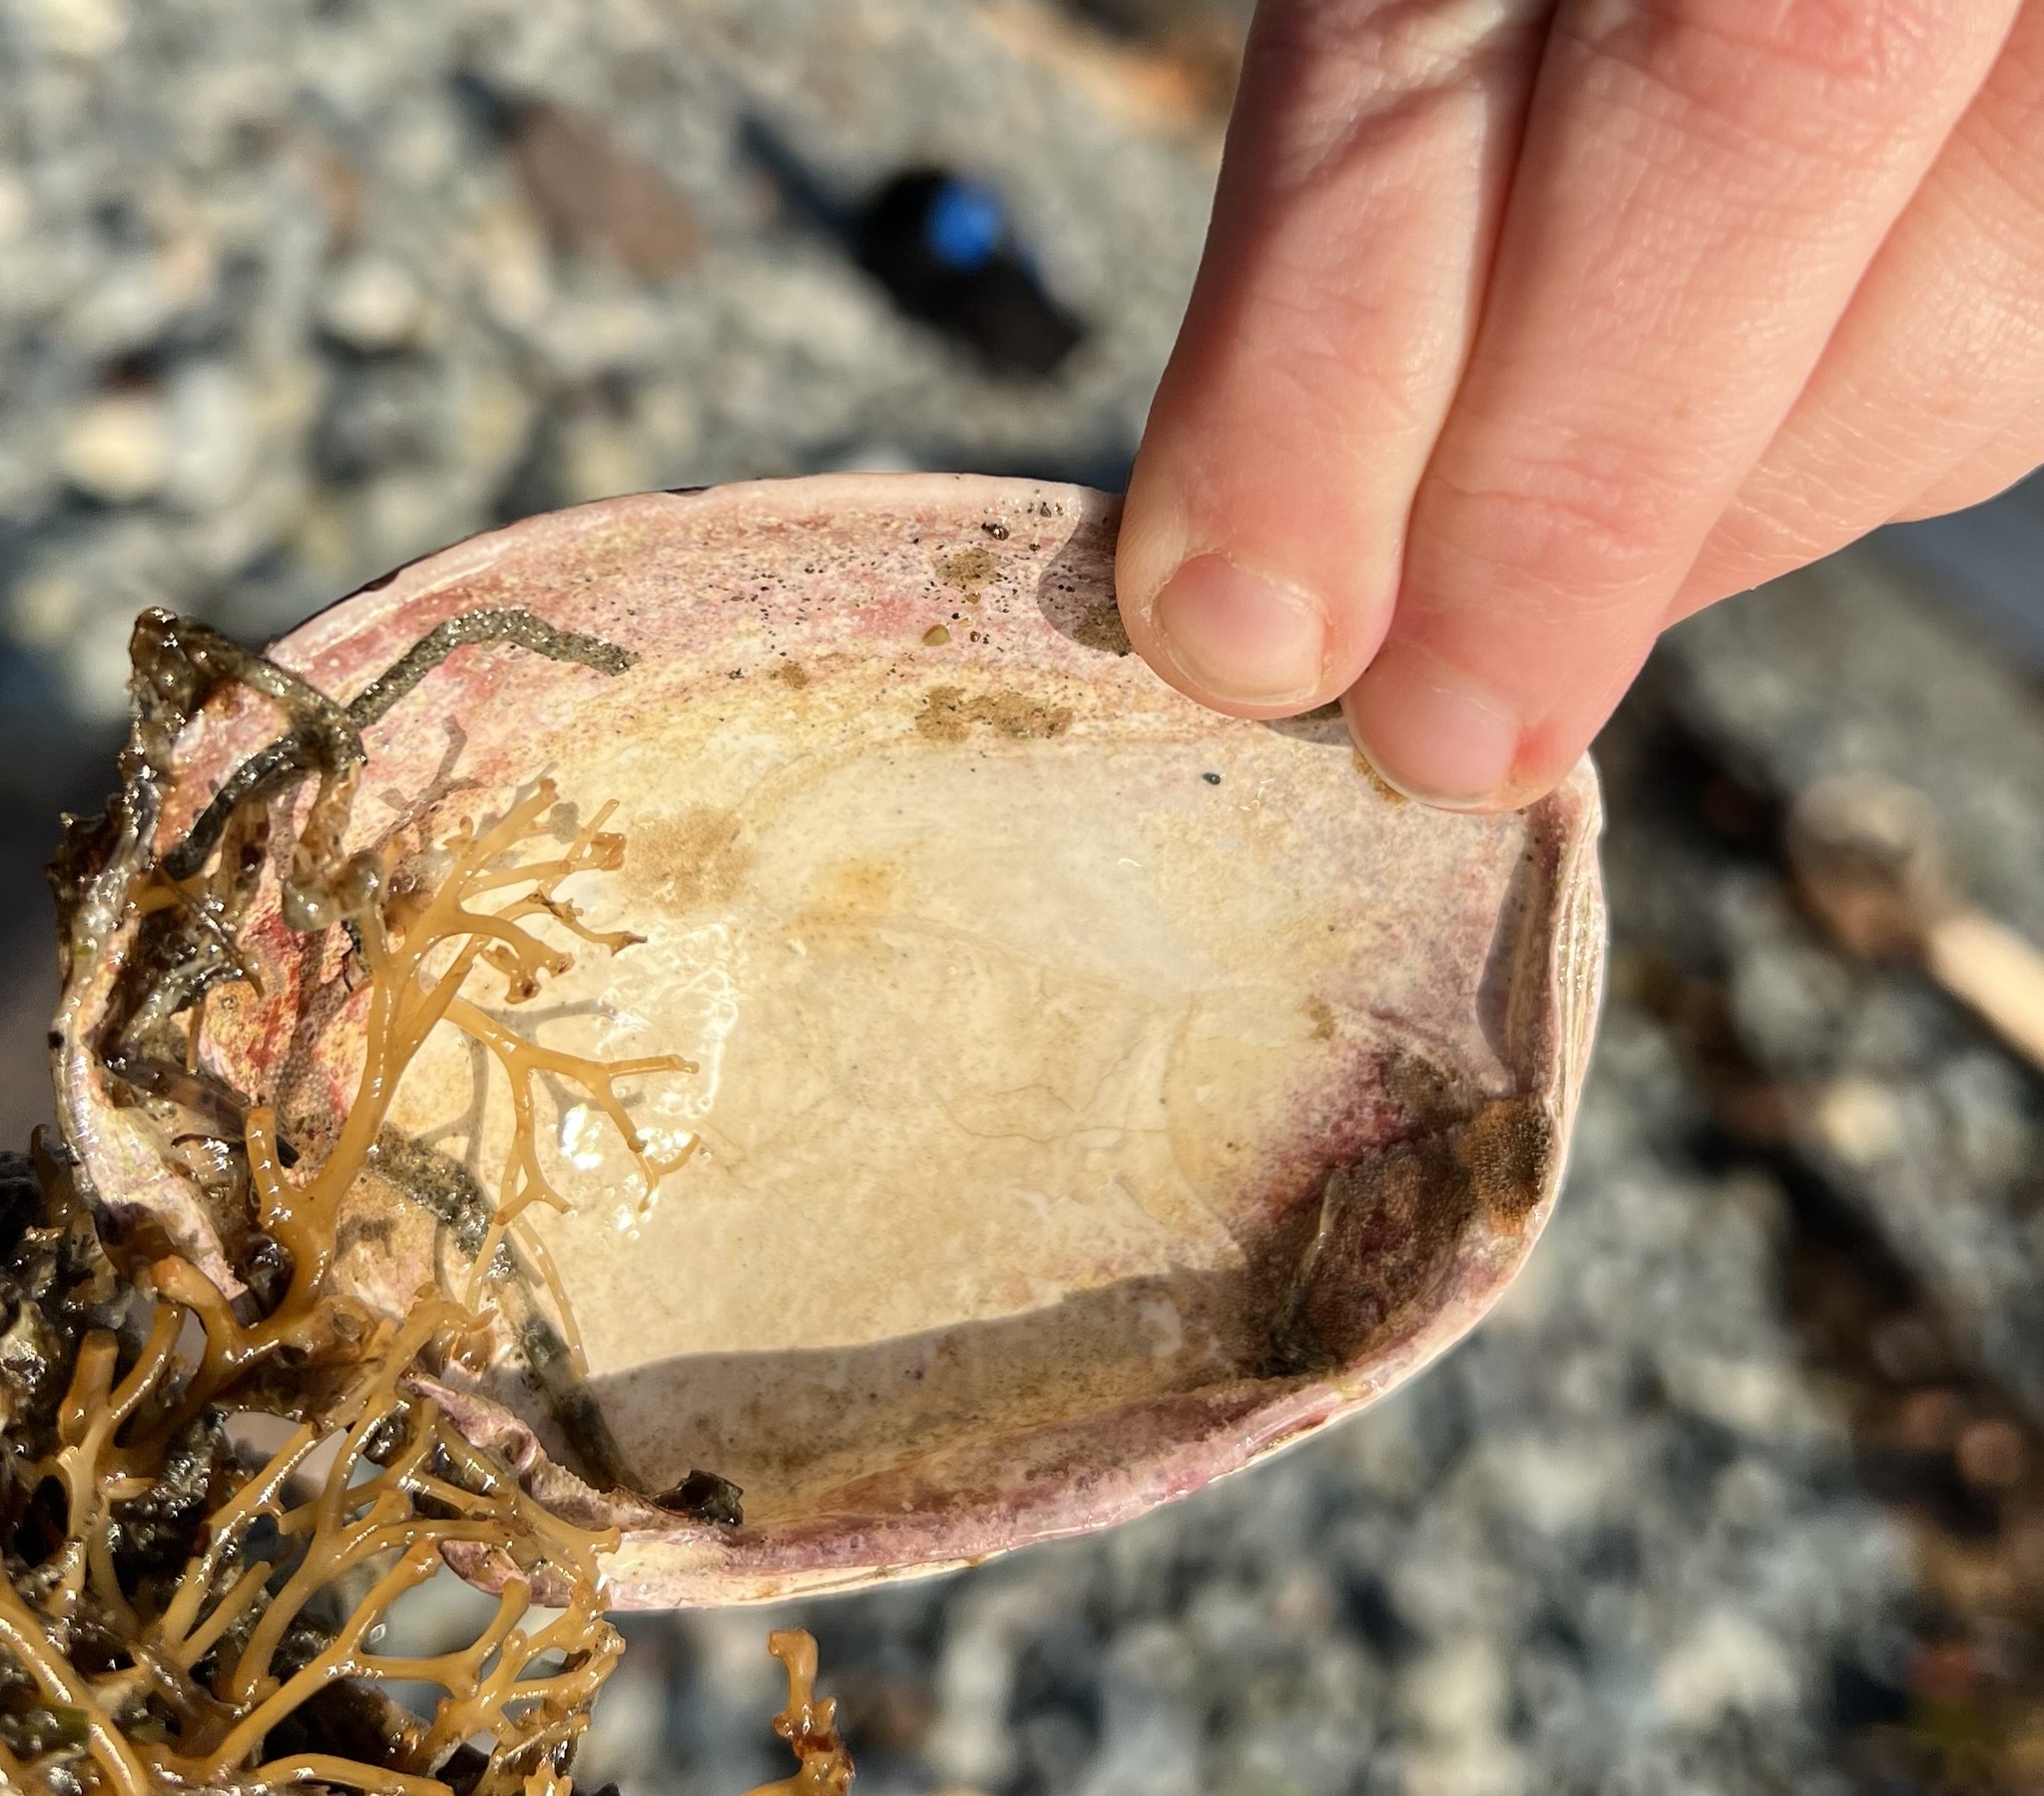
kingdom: Animalia
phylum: Mollusca
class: Bivalvia
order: Venerida
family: Veneridae
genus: Saxidomus
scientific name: Saxidomus gigantea
